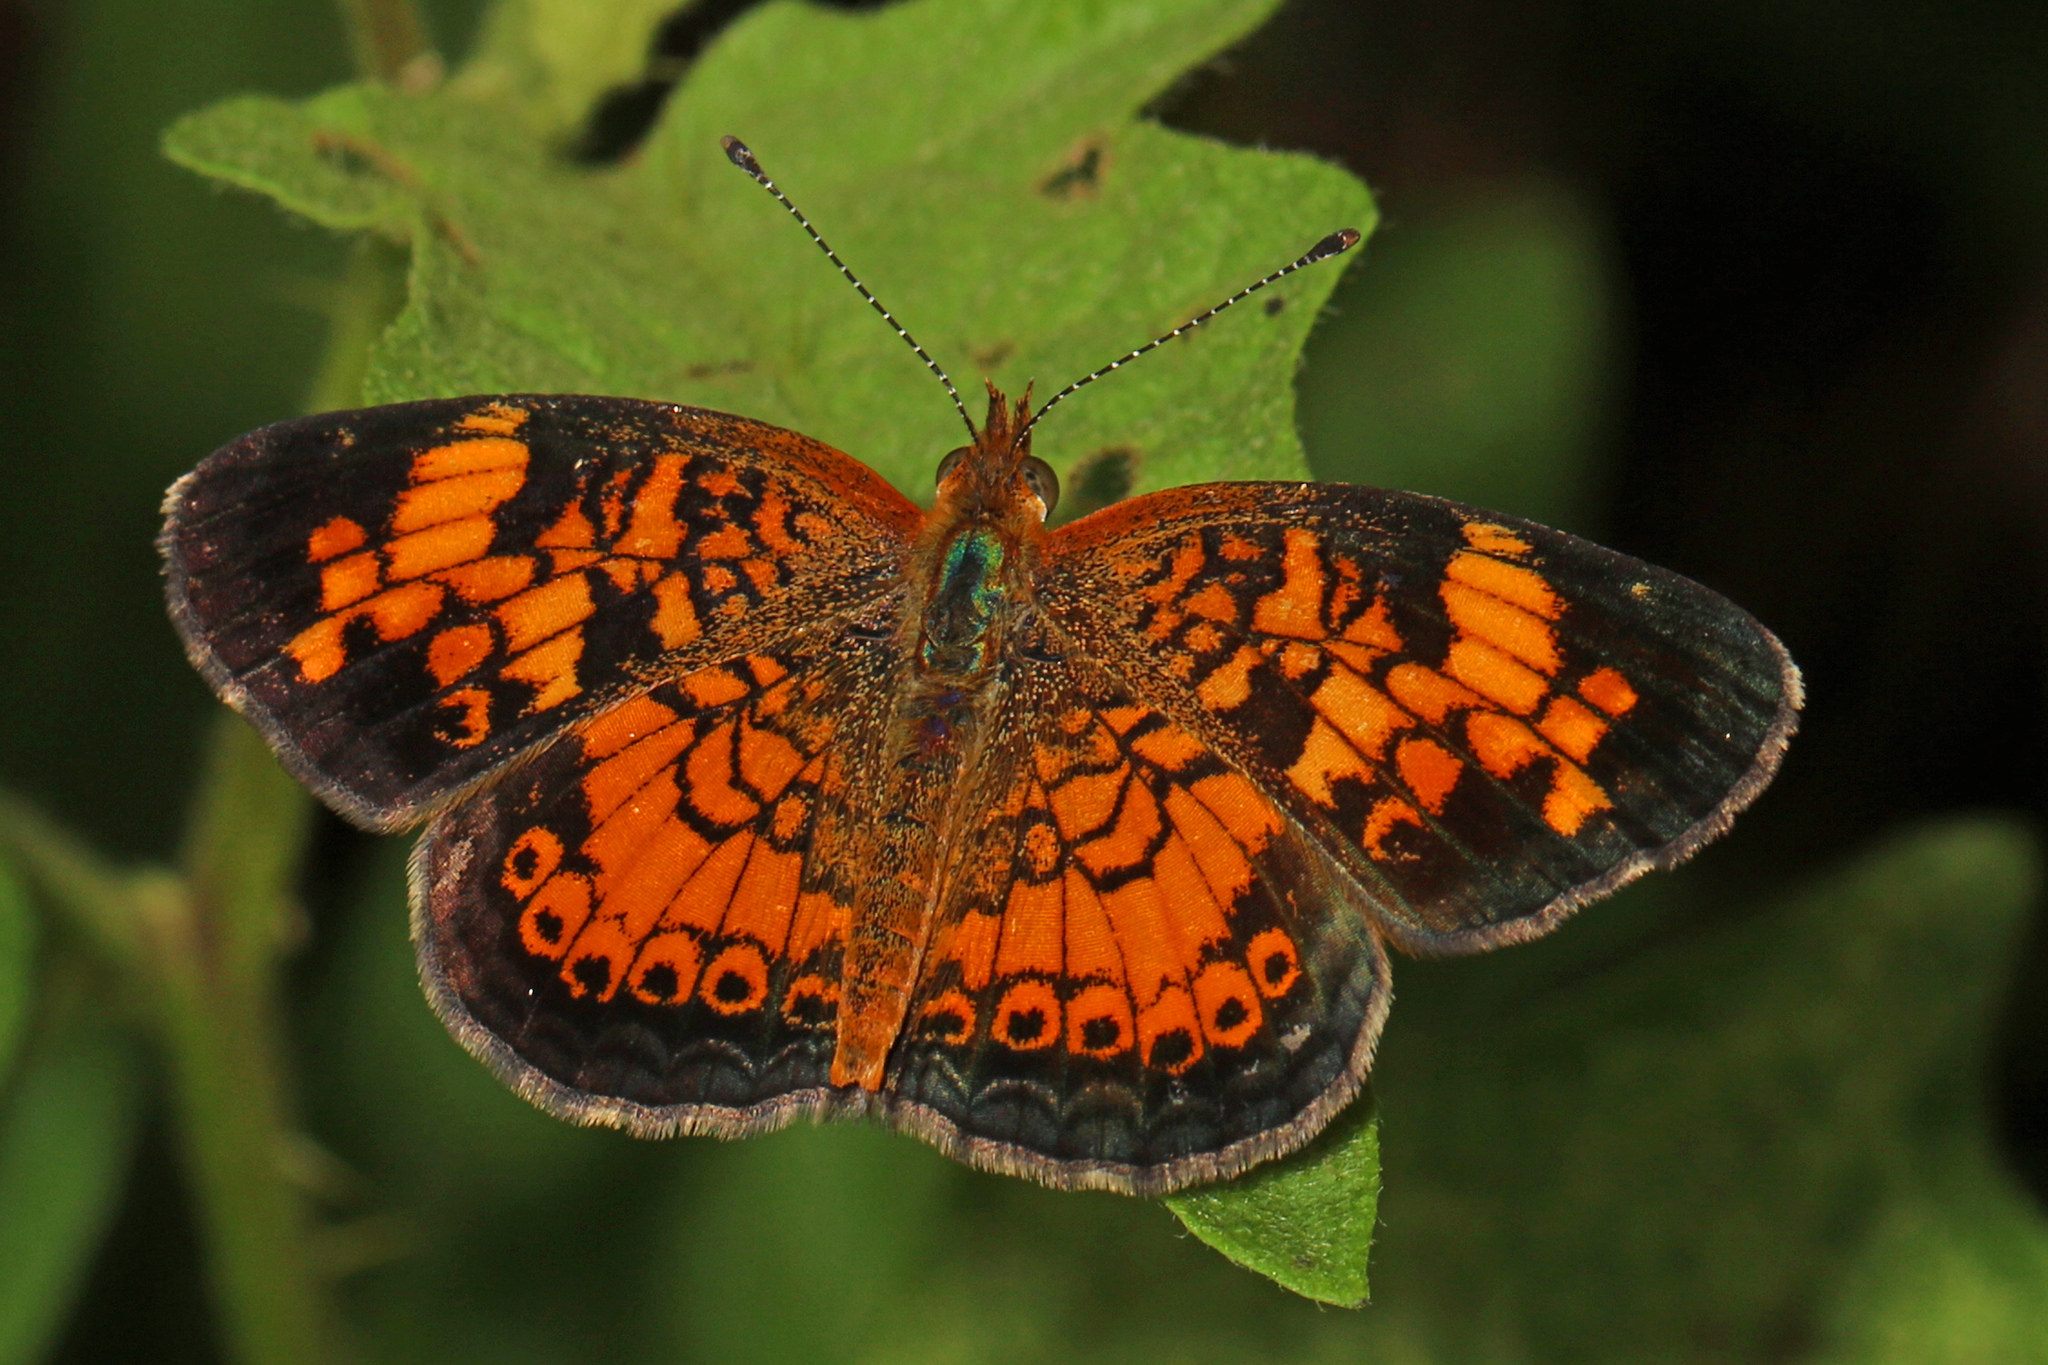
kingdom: Animalia
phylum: Arthropoda
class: Insecta
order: Lepidoptera
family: Nymphalidae
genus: Phyciodes
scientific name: Phyciodes tharos
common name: Pearl crescent
